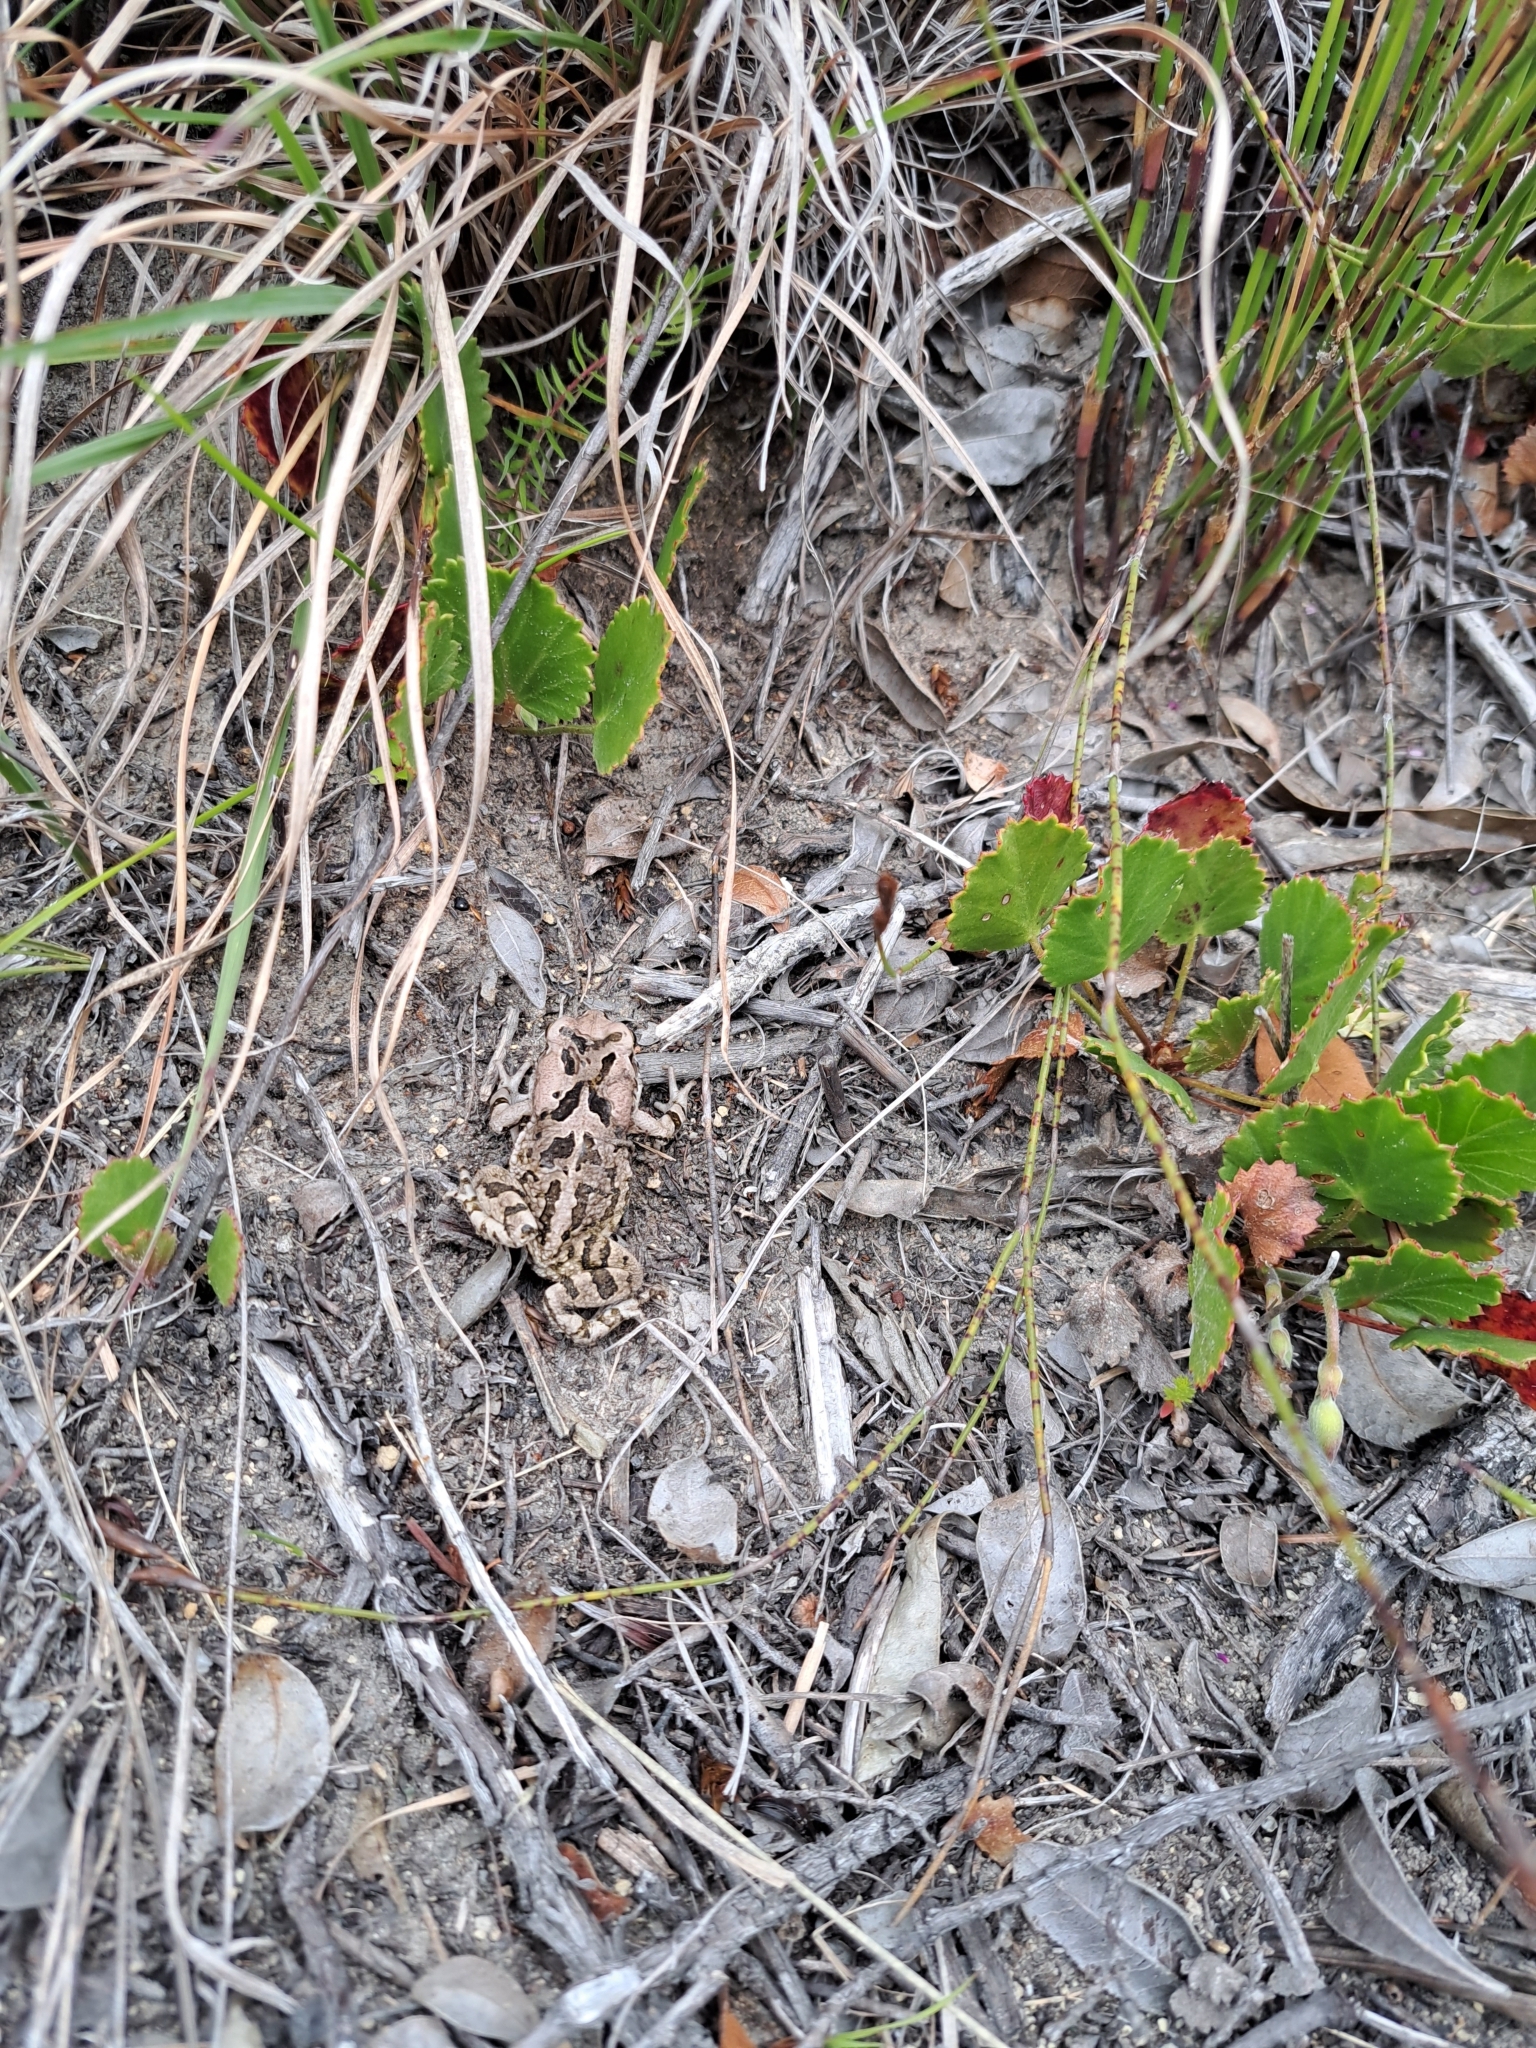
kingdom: Animalia
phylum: Chordata
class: Amphibia
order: Anura
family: Bufonidae
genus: Sclerophrys
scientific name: Sclerophrys capensis
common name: Ranger’s toad
